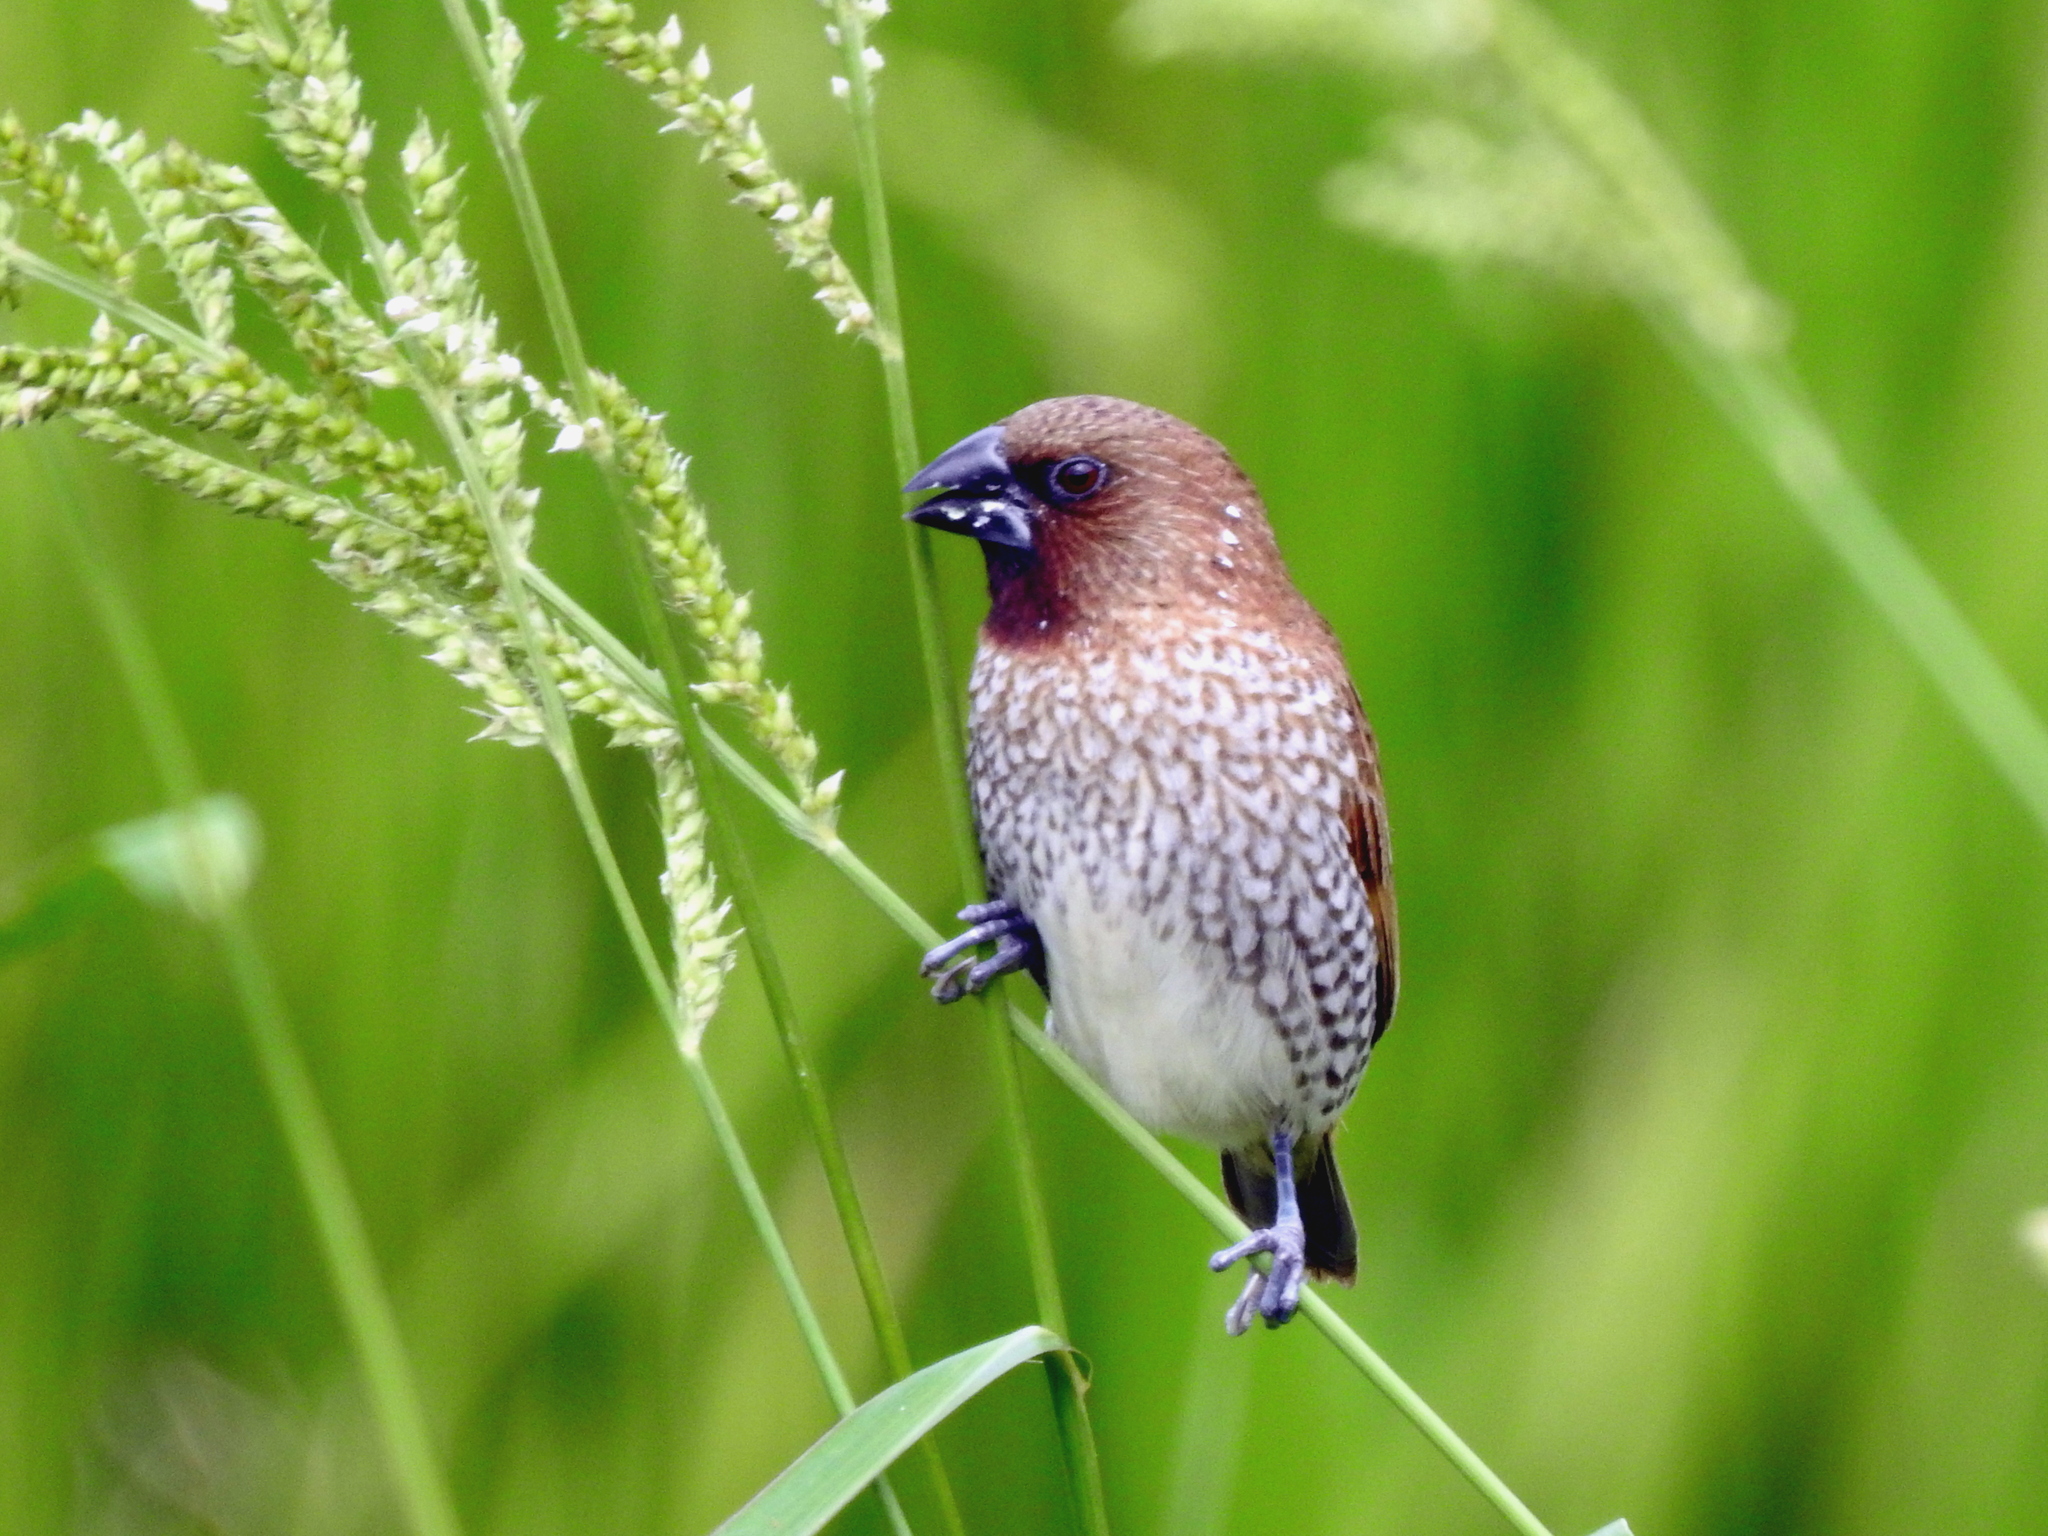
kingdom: Animalia
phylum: Chordata
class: Aves
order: Passeriformes
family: Estrildidae
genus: Lonchura
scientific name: Lonchura punctulata
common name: Scaly-breasted munia
